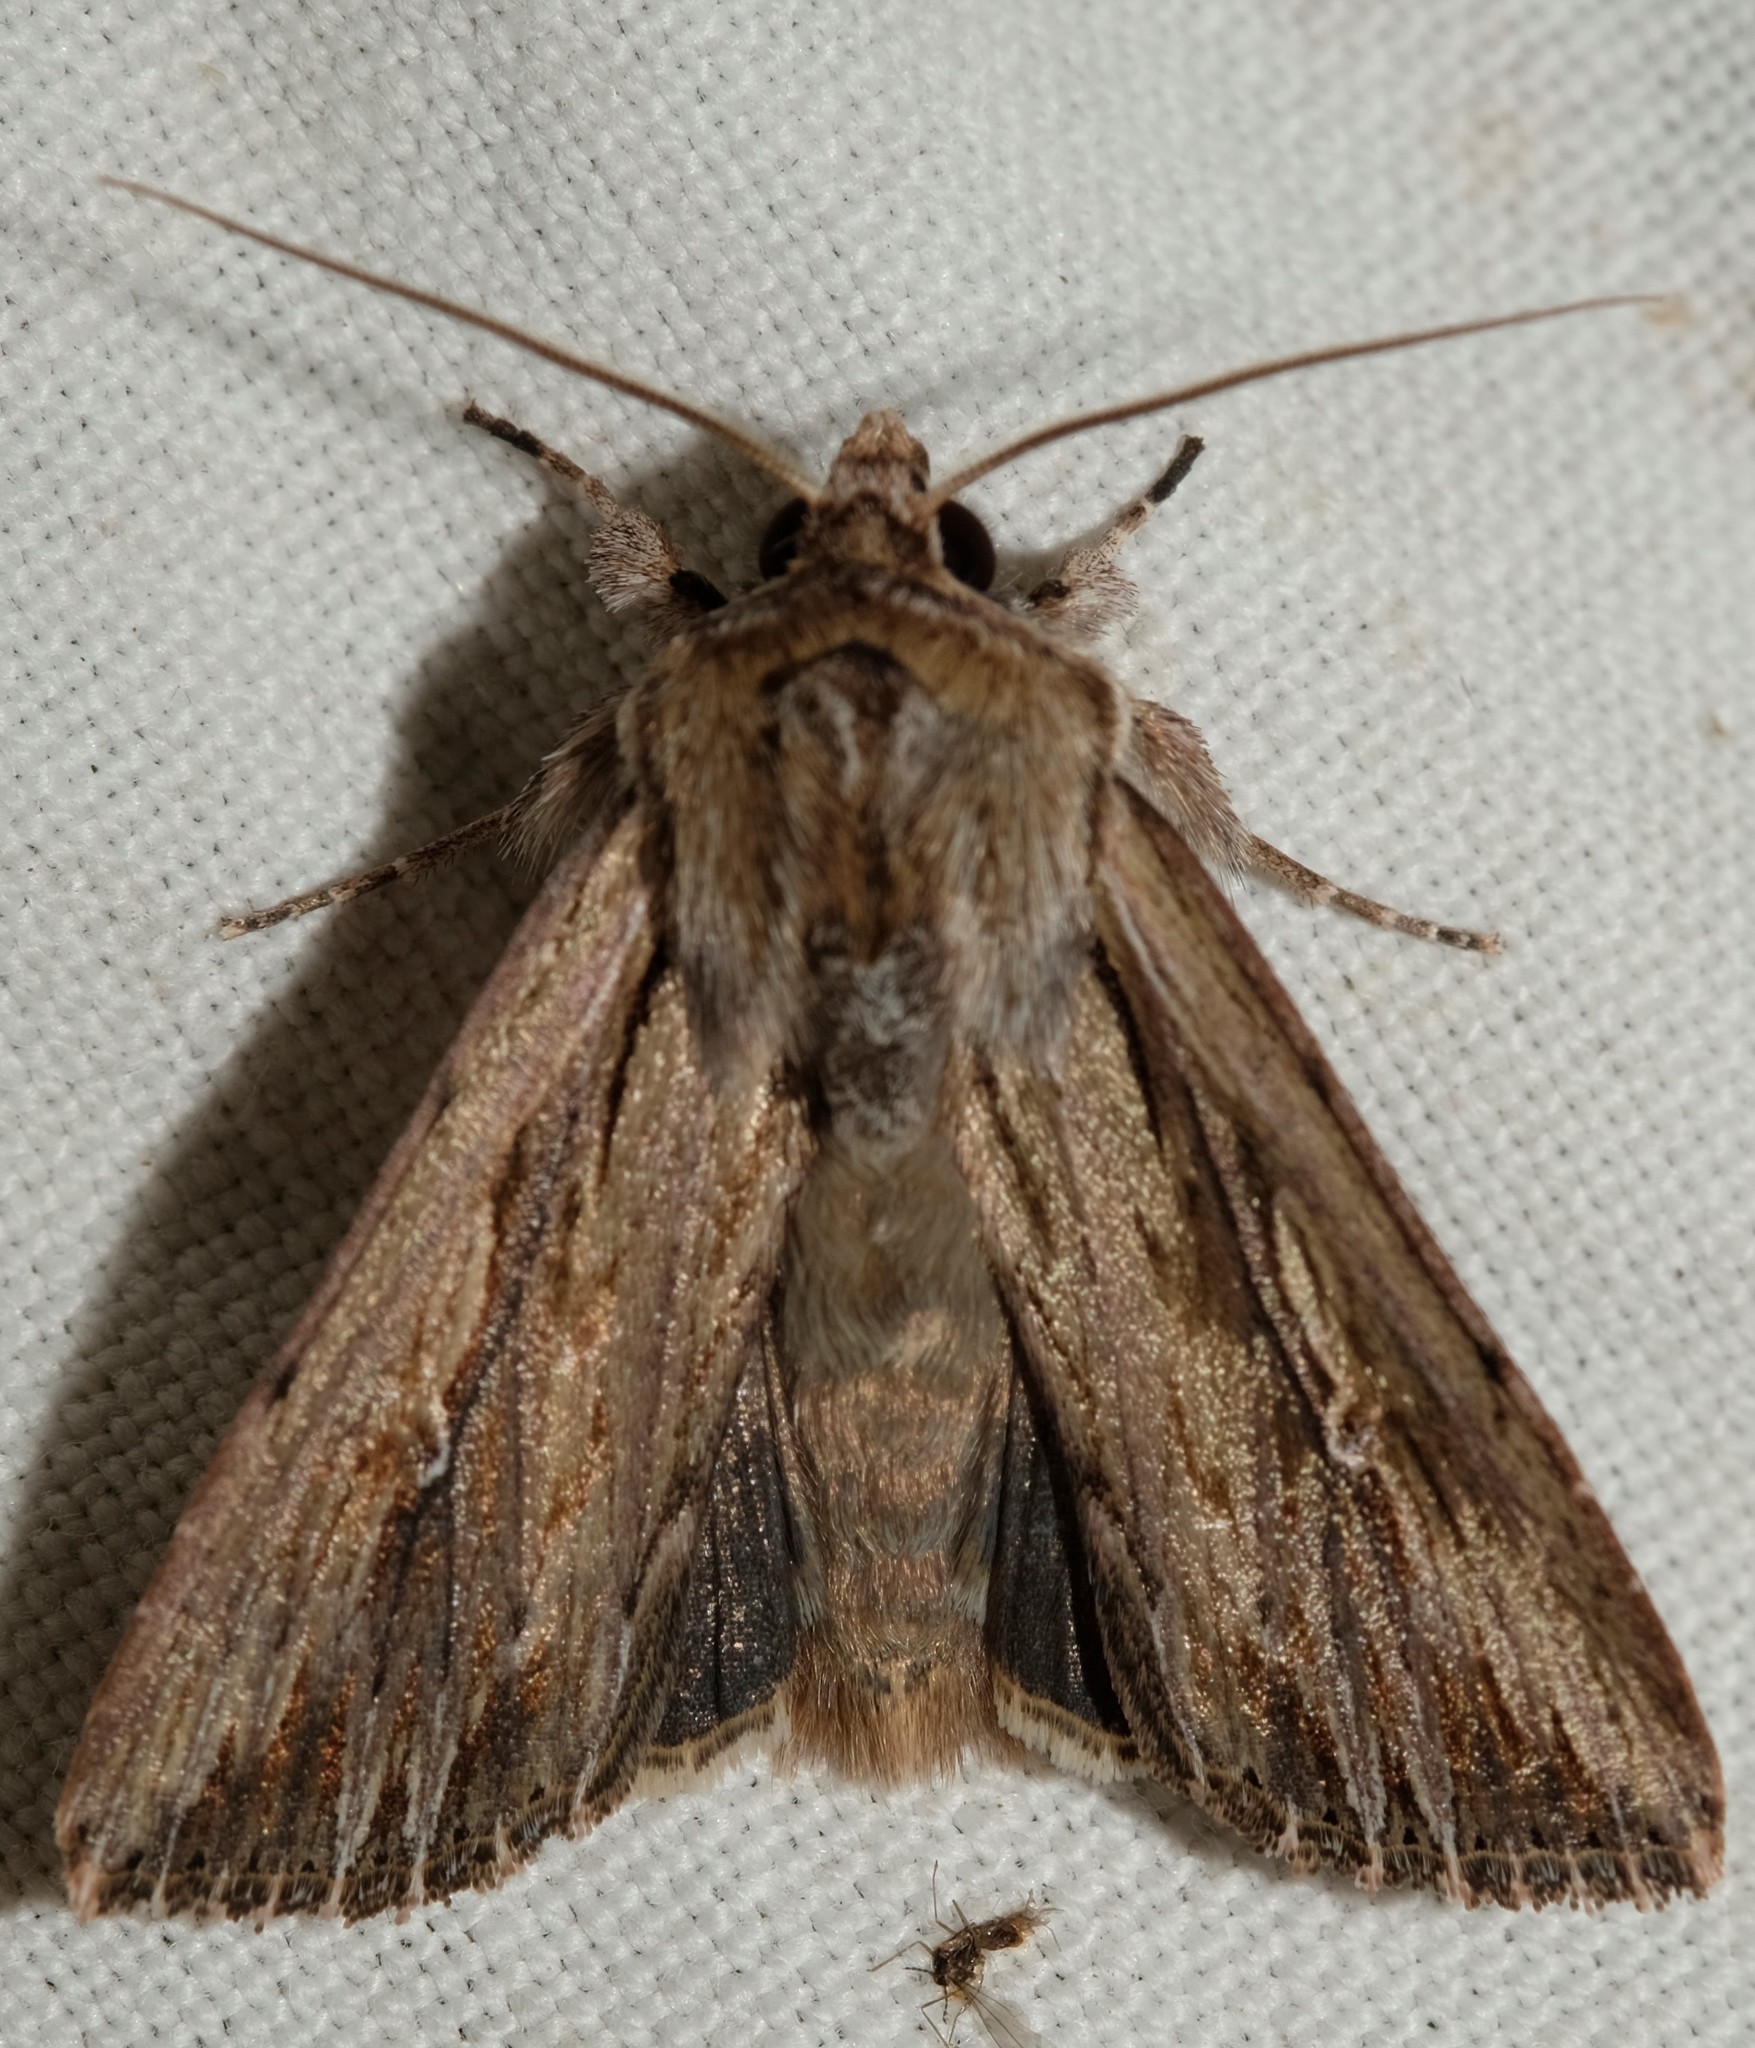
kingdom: Animalia
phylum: Arthropoda
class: Insecta
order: Lepidoptera
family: Noctuidae
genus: Persectania
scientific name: Persectania ewingii
